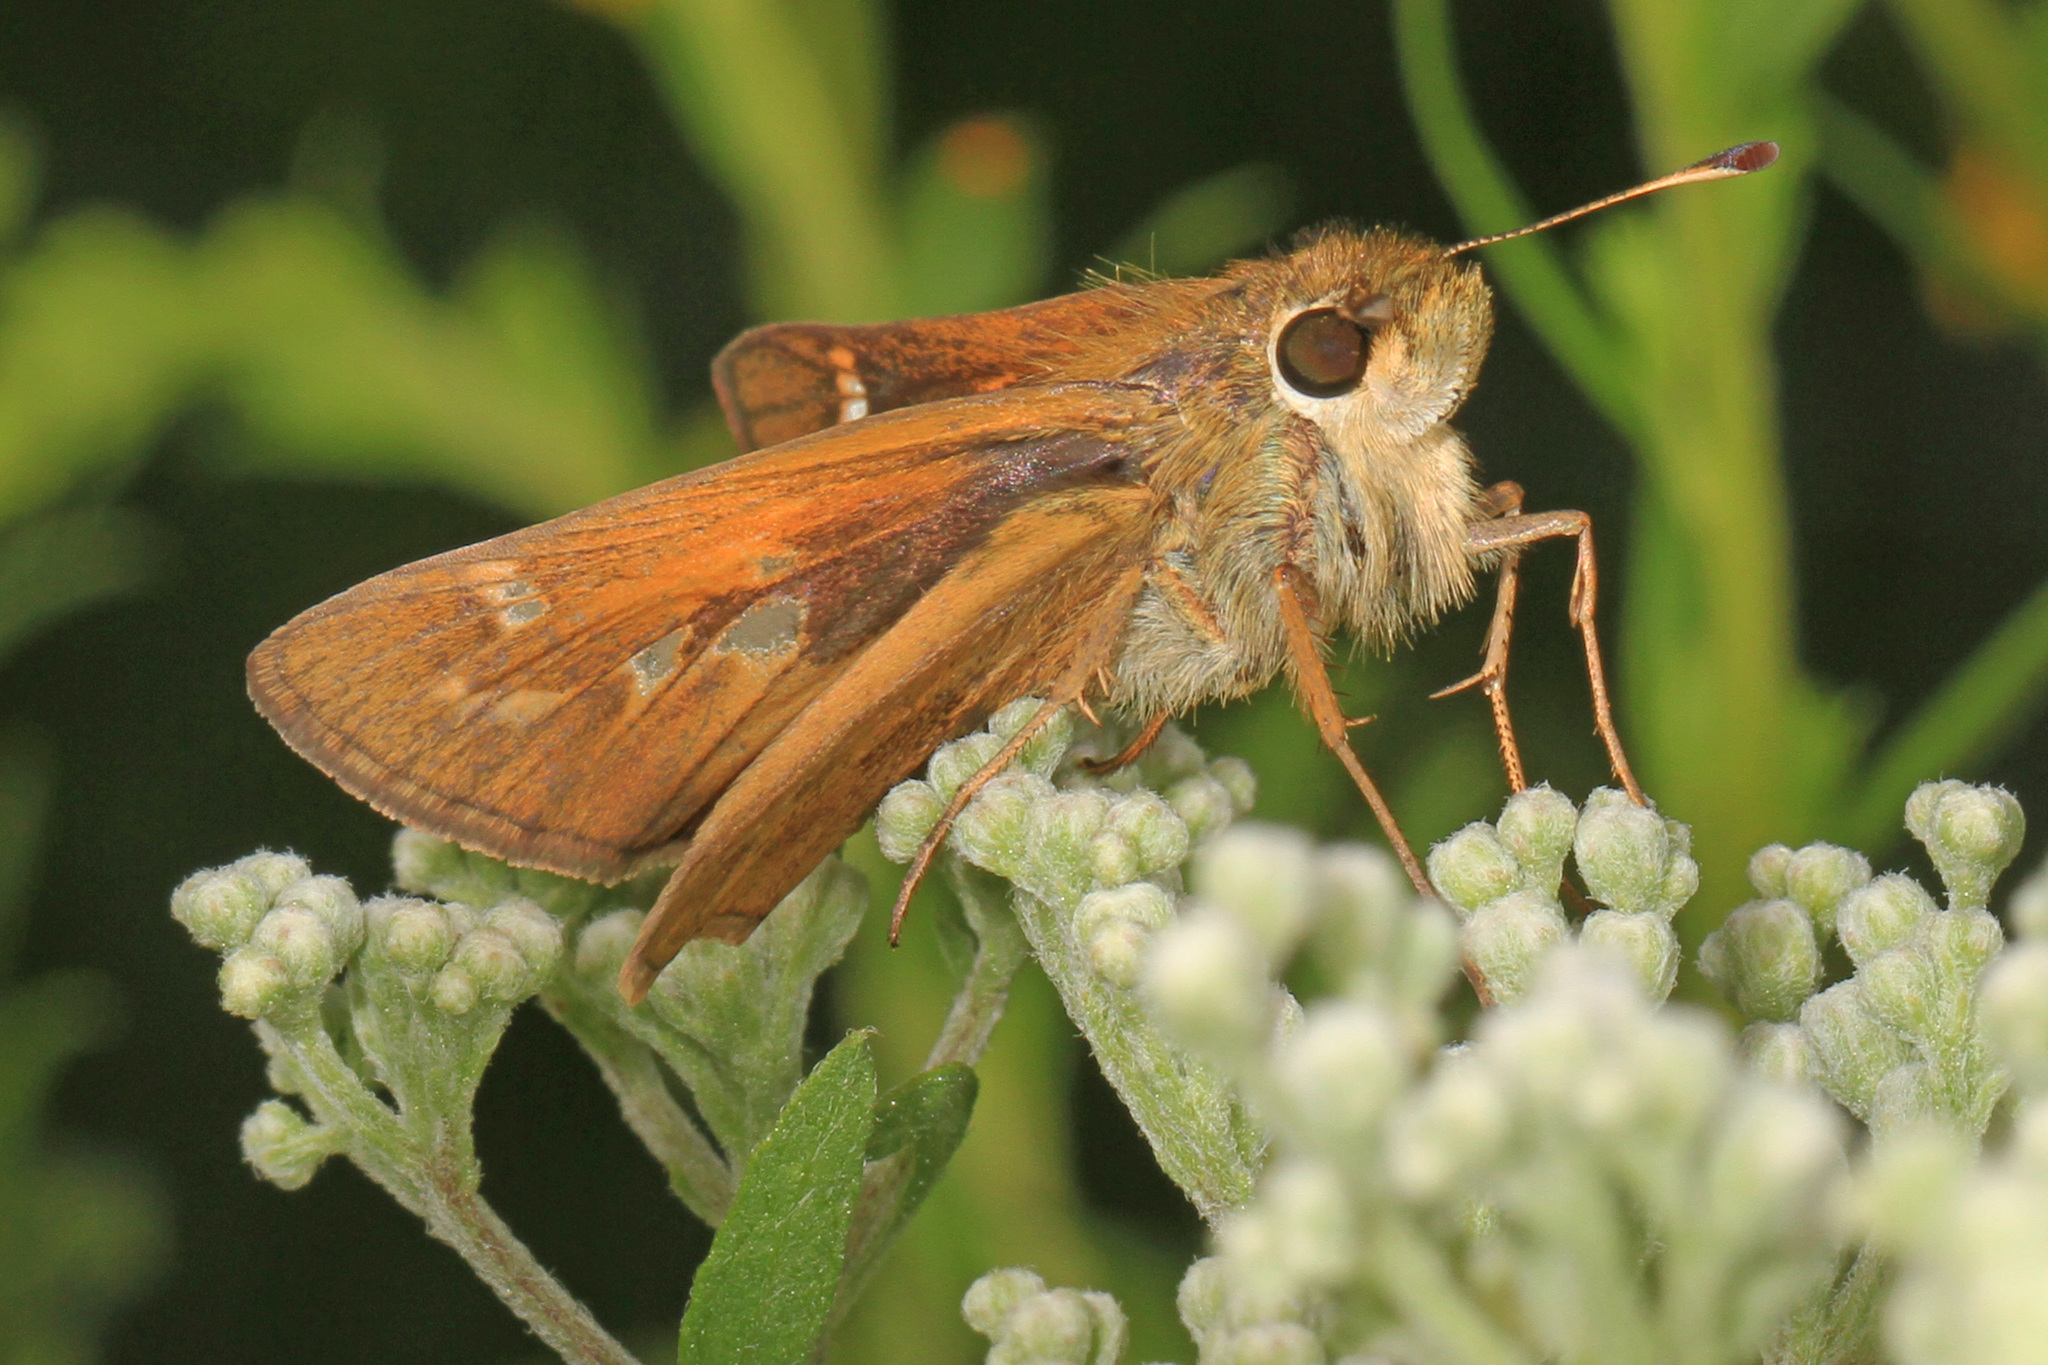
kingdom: Animalia
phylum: Arthropoda
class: Insecta
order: Lepidoptera
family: Hesperiidae
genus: Atalopedes
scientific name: Atalopedes
